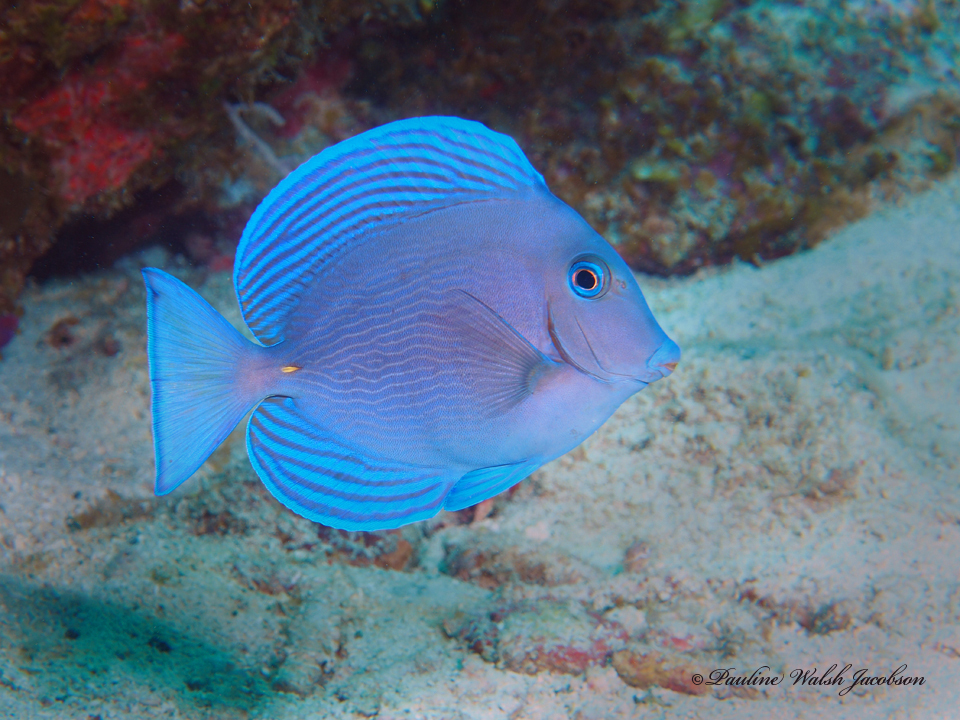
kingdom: Animalia
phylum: Chordata
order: Perciformes
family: Acanthuridae
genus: Acanthurus
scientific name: Acanthurus coeruleus
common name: Blue tang
